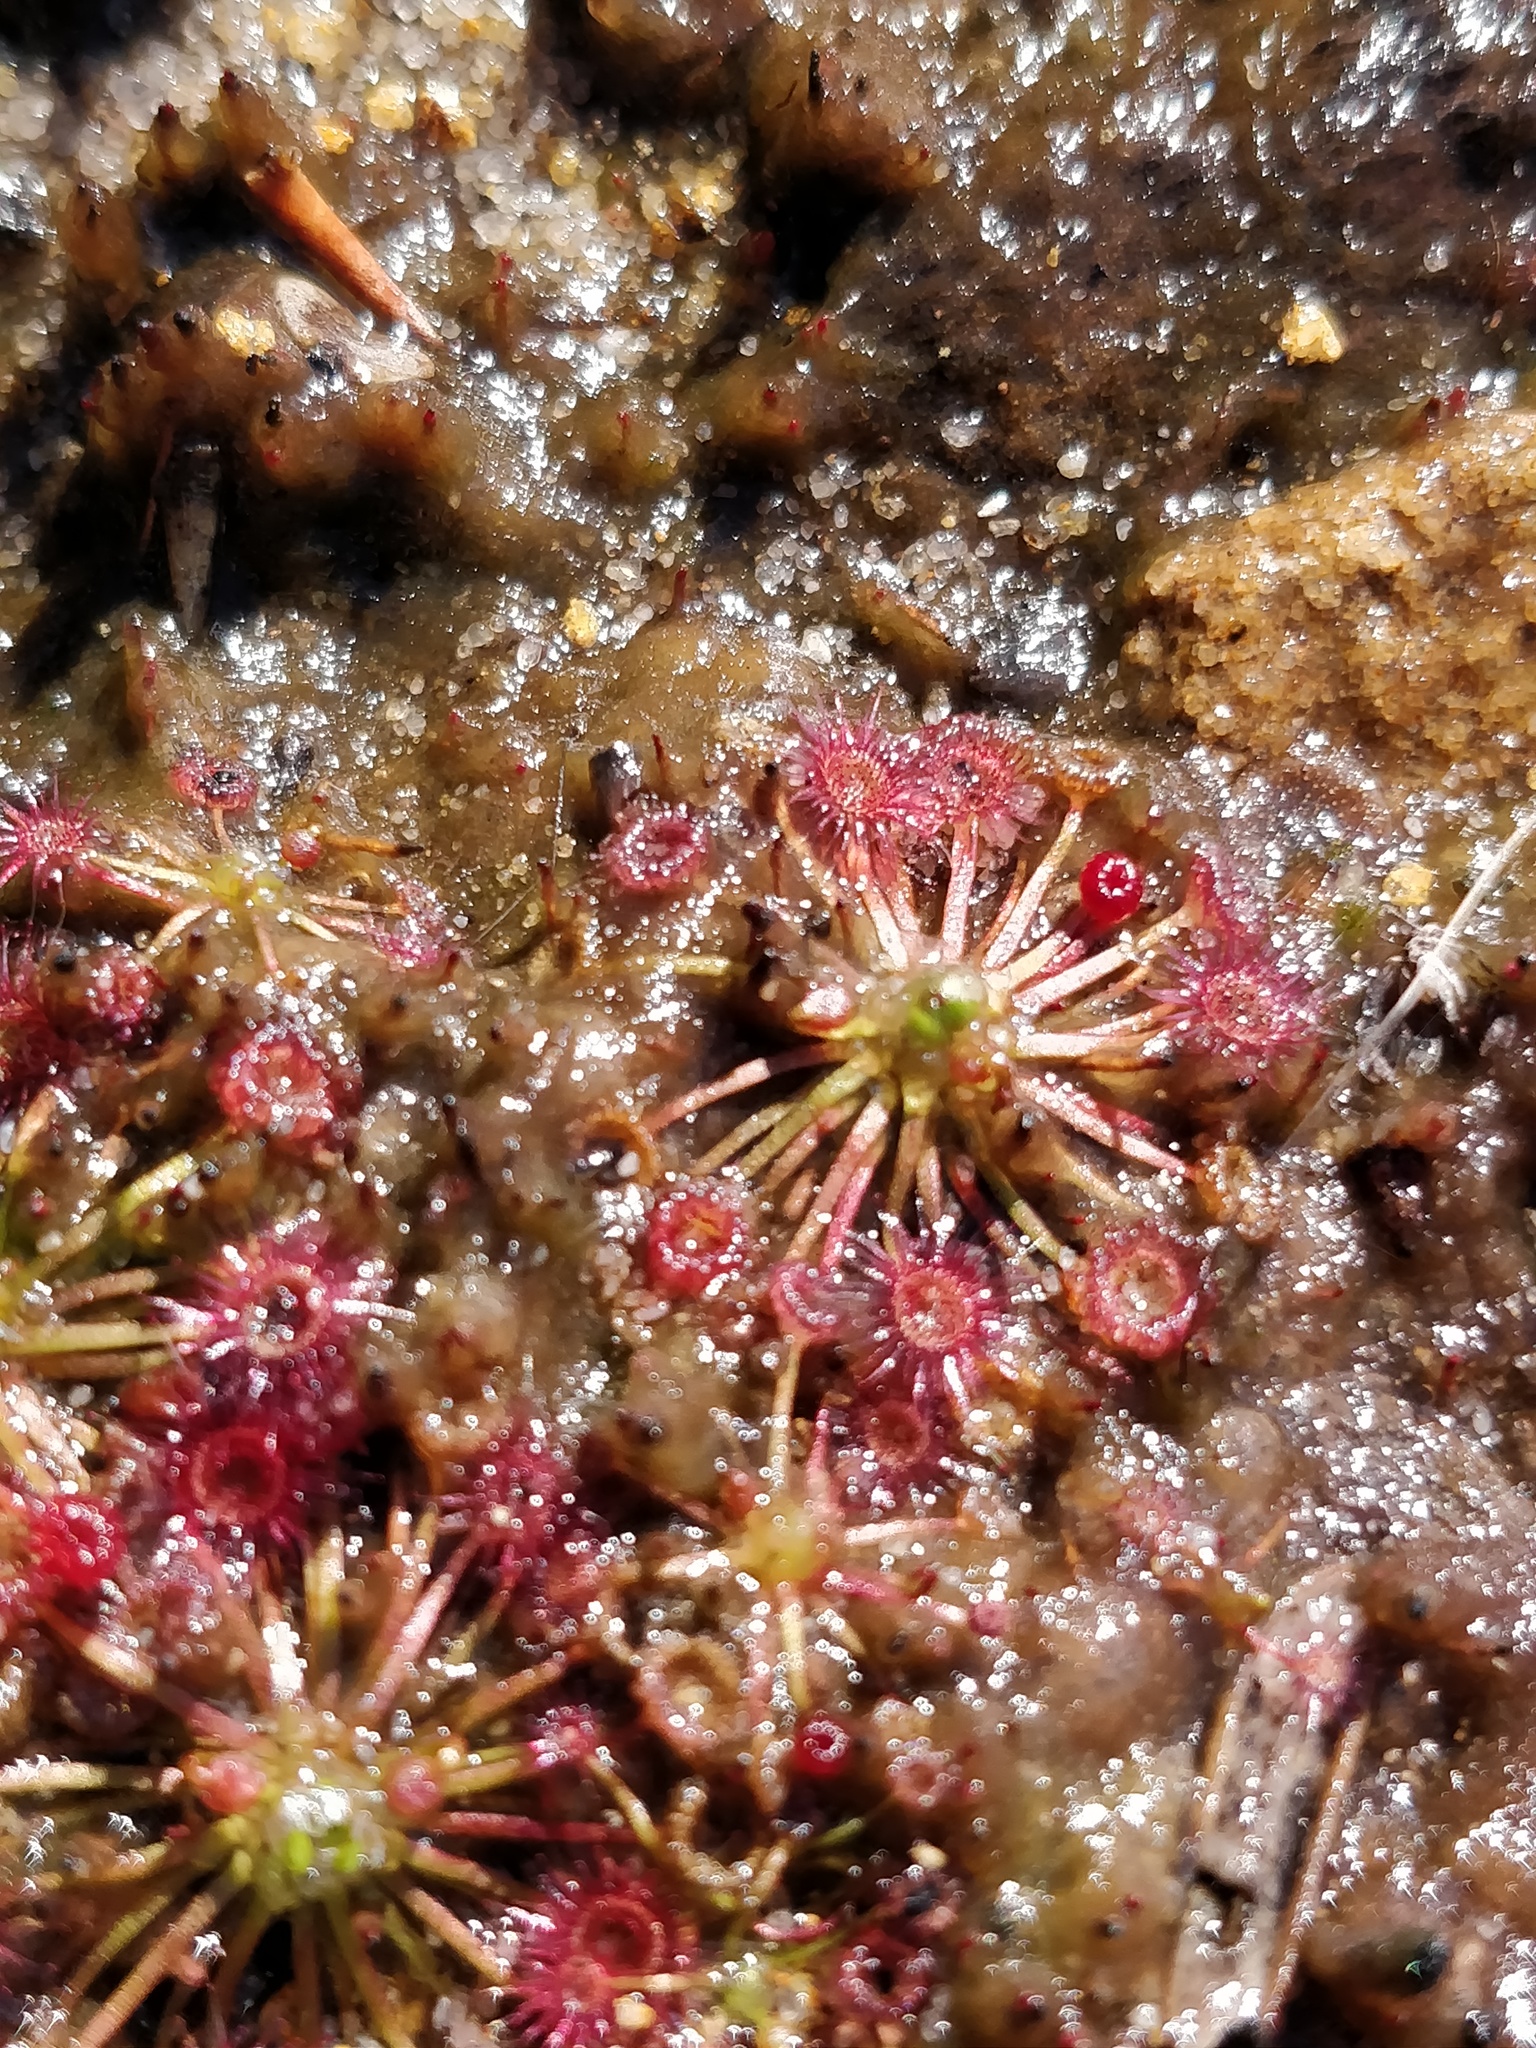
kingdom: Plantae
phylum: Tracheophyta
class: Magnoliopsida
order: Caryophyllales
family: Droseraceae
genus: Drosera
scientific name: Drosera pygmaea
